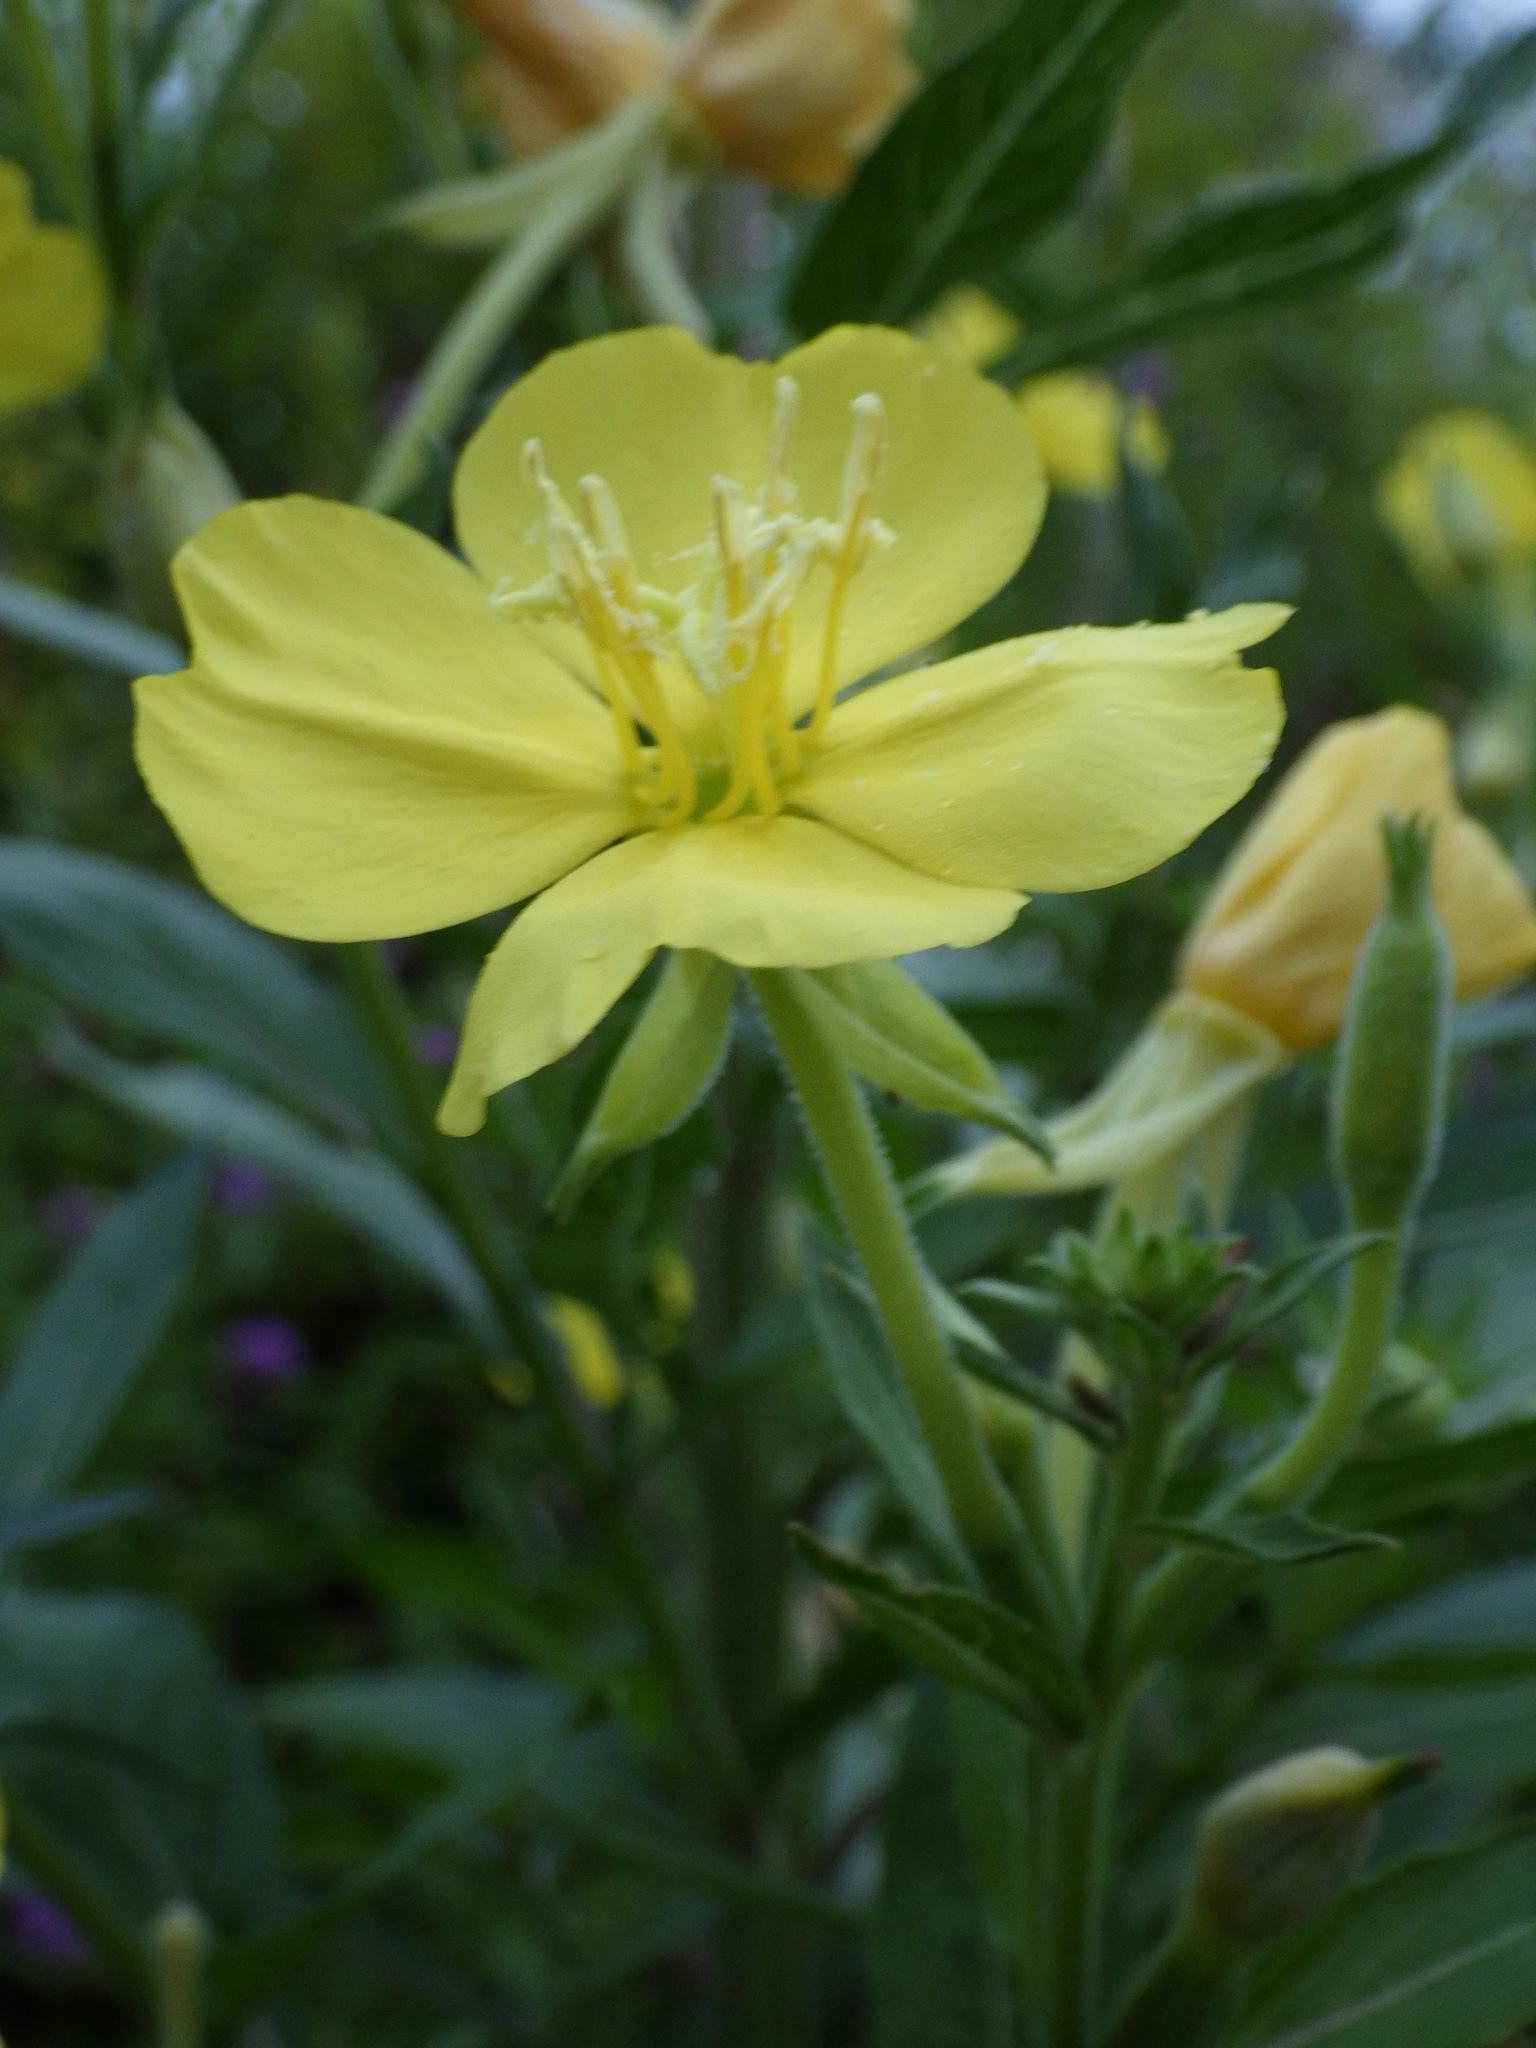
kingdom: Plantae
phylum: Tracheophyta
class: Magnoliopsida
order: Myrtales
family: Onagraceae
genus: Oenothera
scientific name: Oenothera biennis
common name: Common evening-primrose
